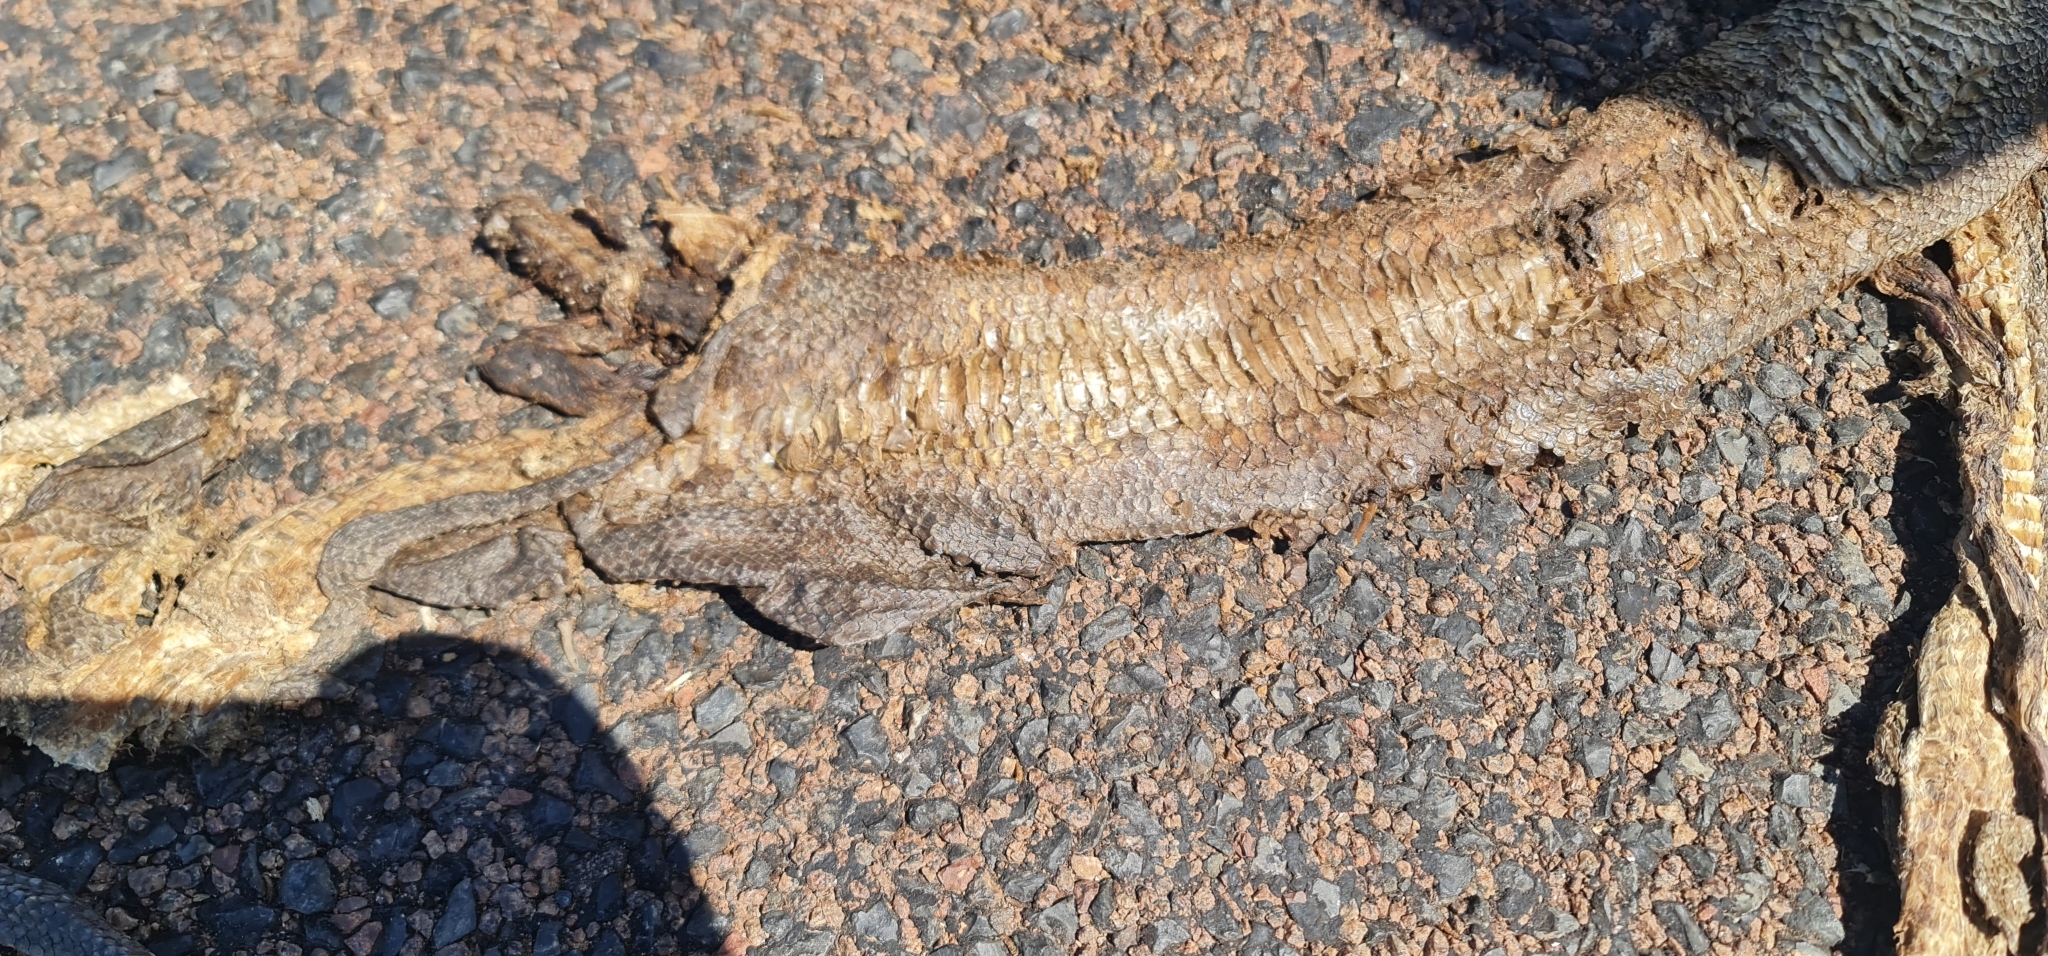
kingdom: Animalia
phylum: Chordata
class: Squamata
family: Pythonidae
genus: Liasis
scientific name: Liasis olivaceus
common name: Olive python
